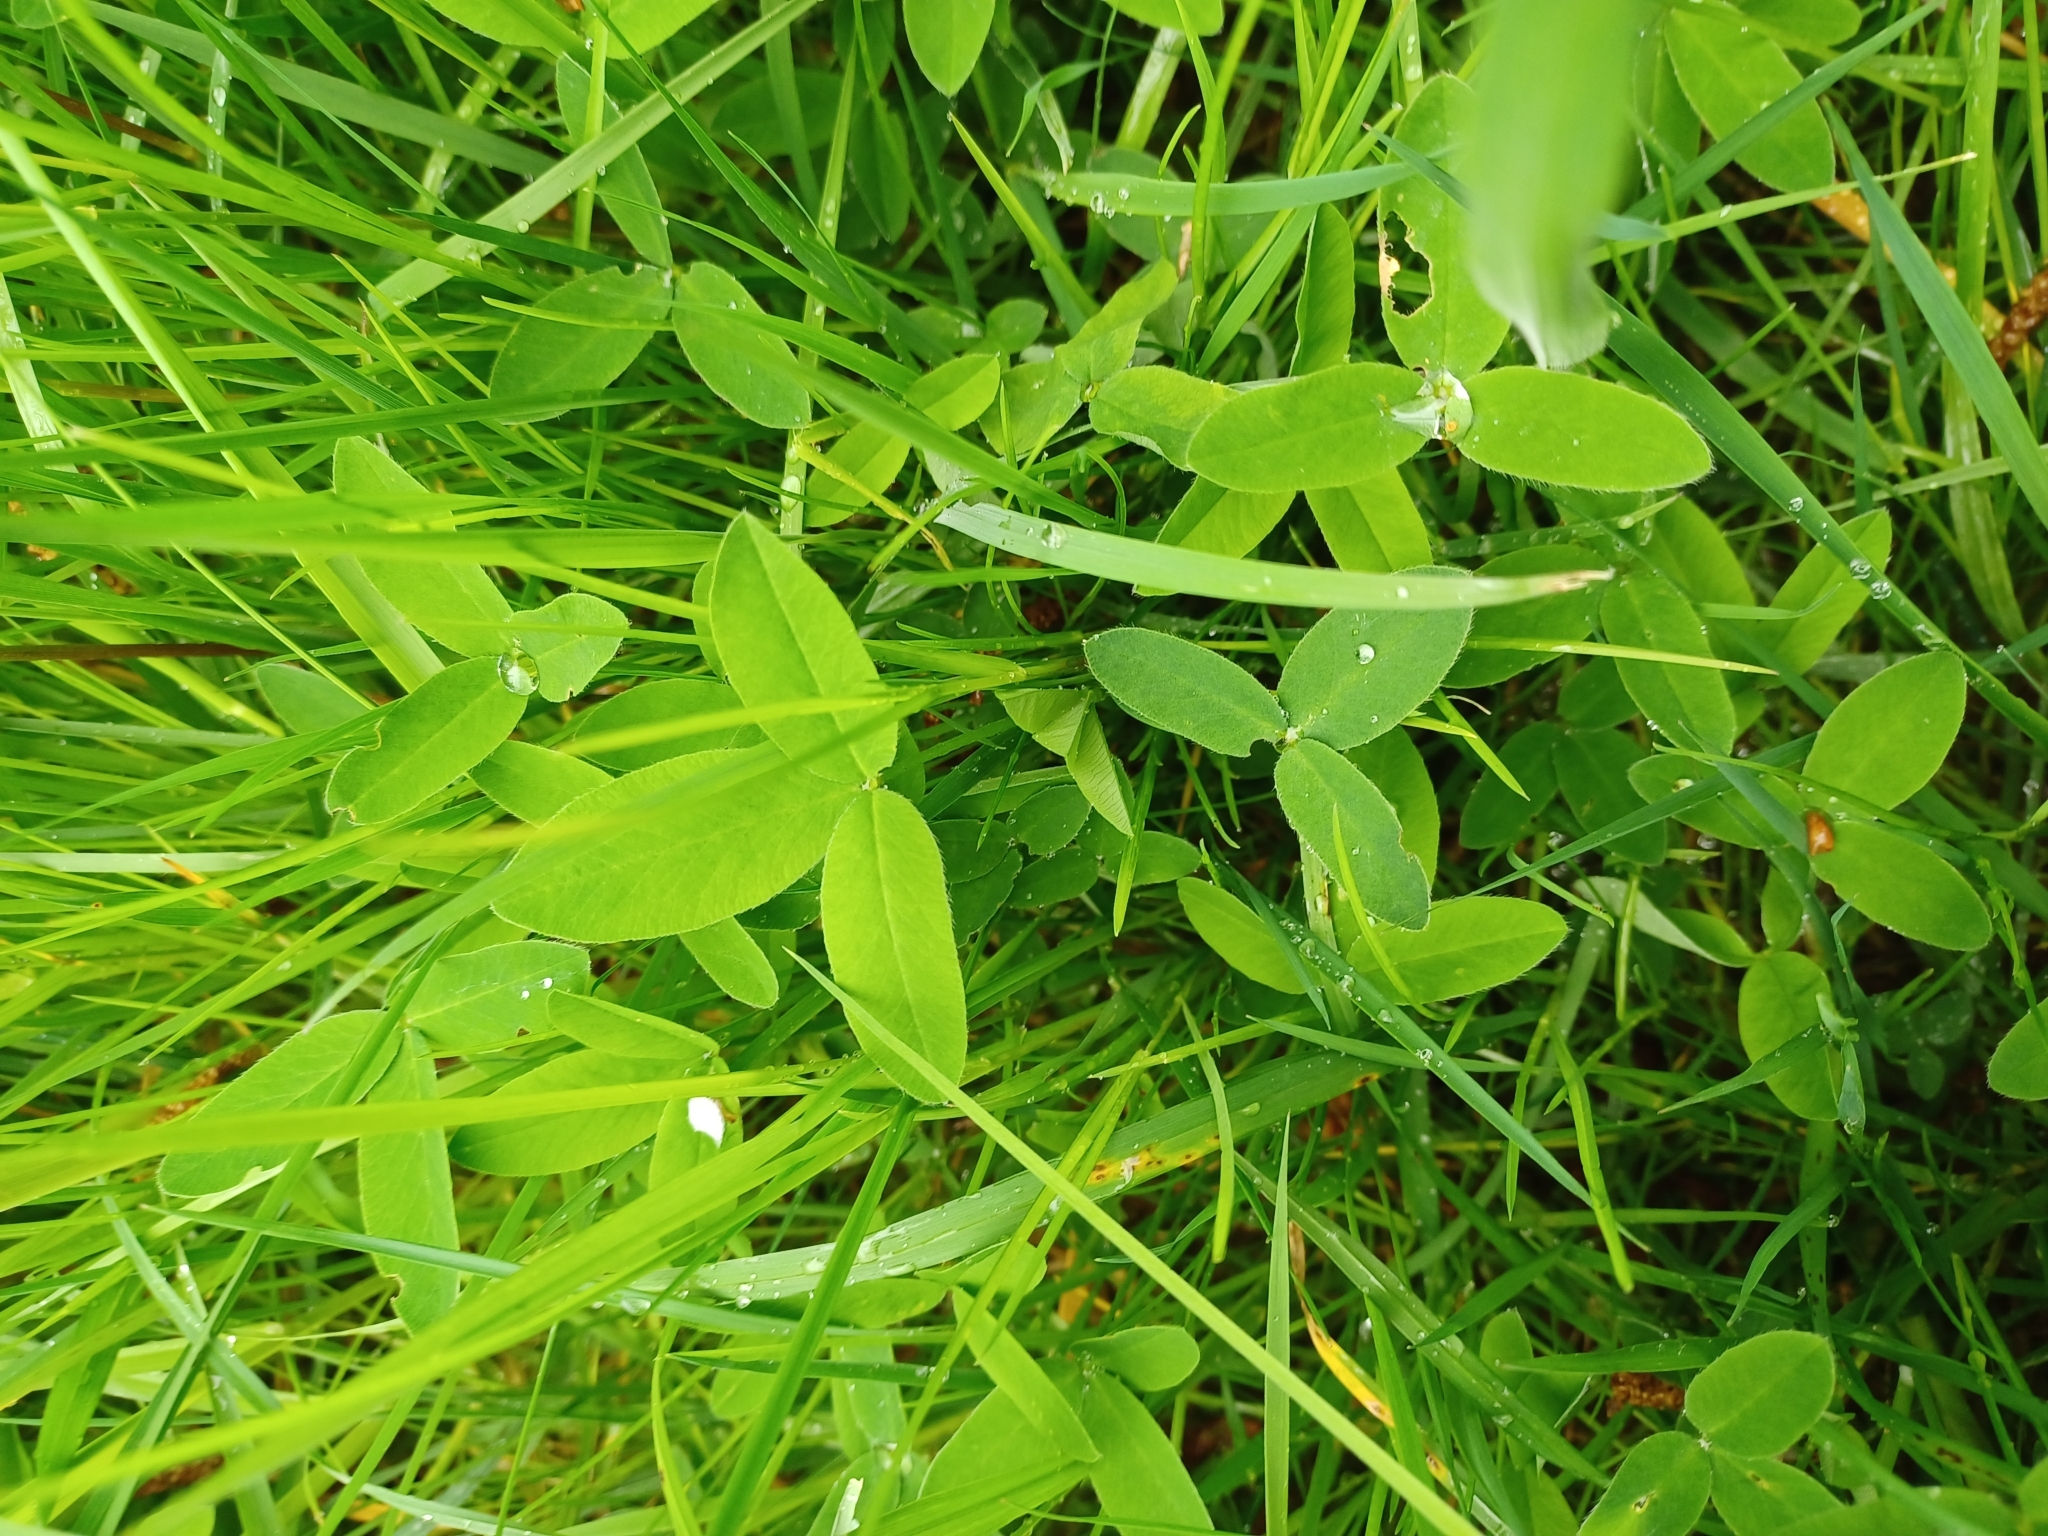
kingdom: Plantae
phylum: Tracheophyta
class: Magnoliopsida
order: Fabales
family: Fabaceae
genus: Trifolium
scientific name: Trifolium pratense
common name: Red clover
